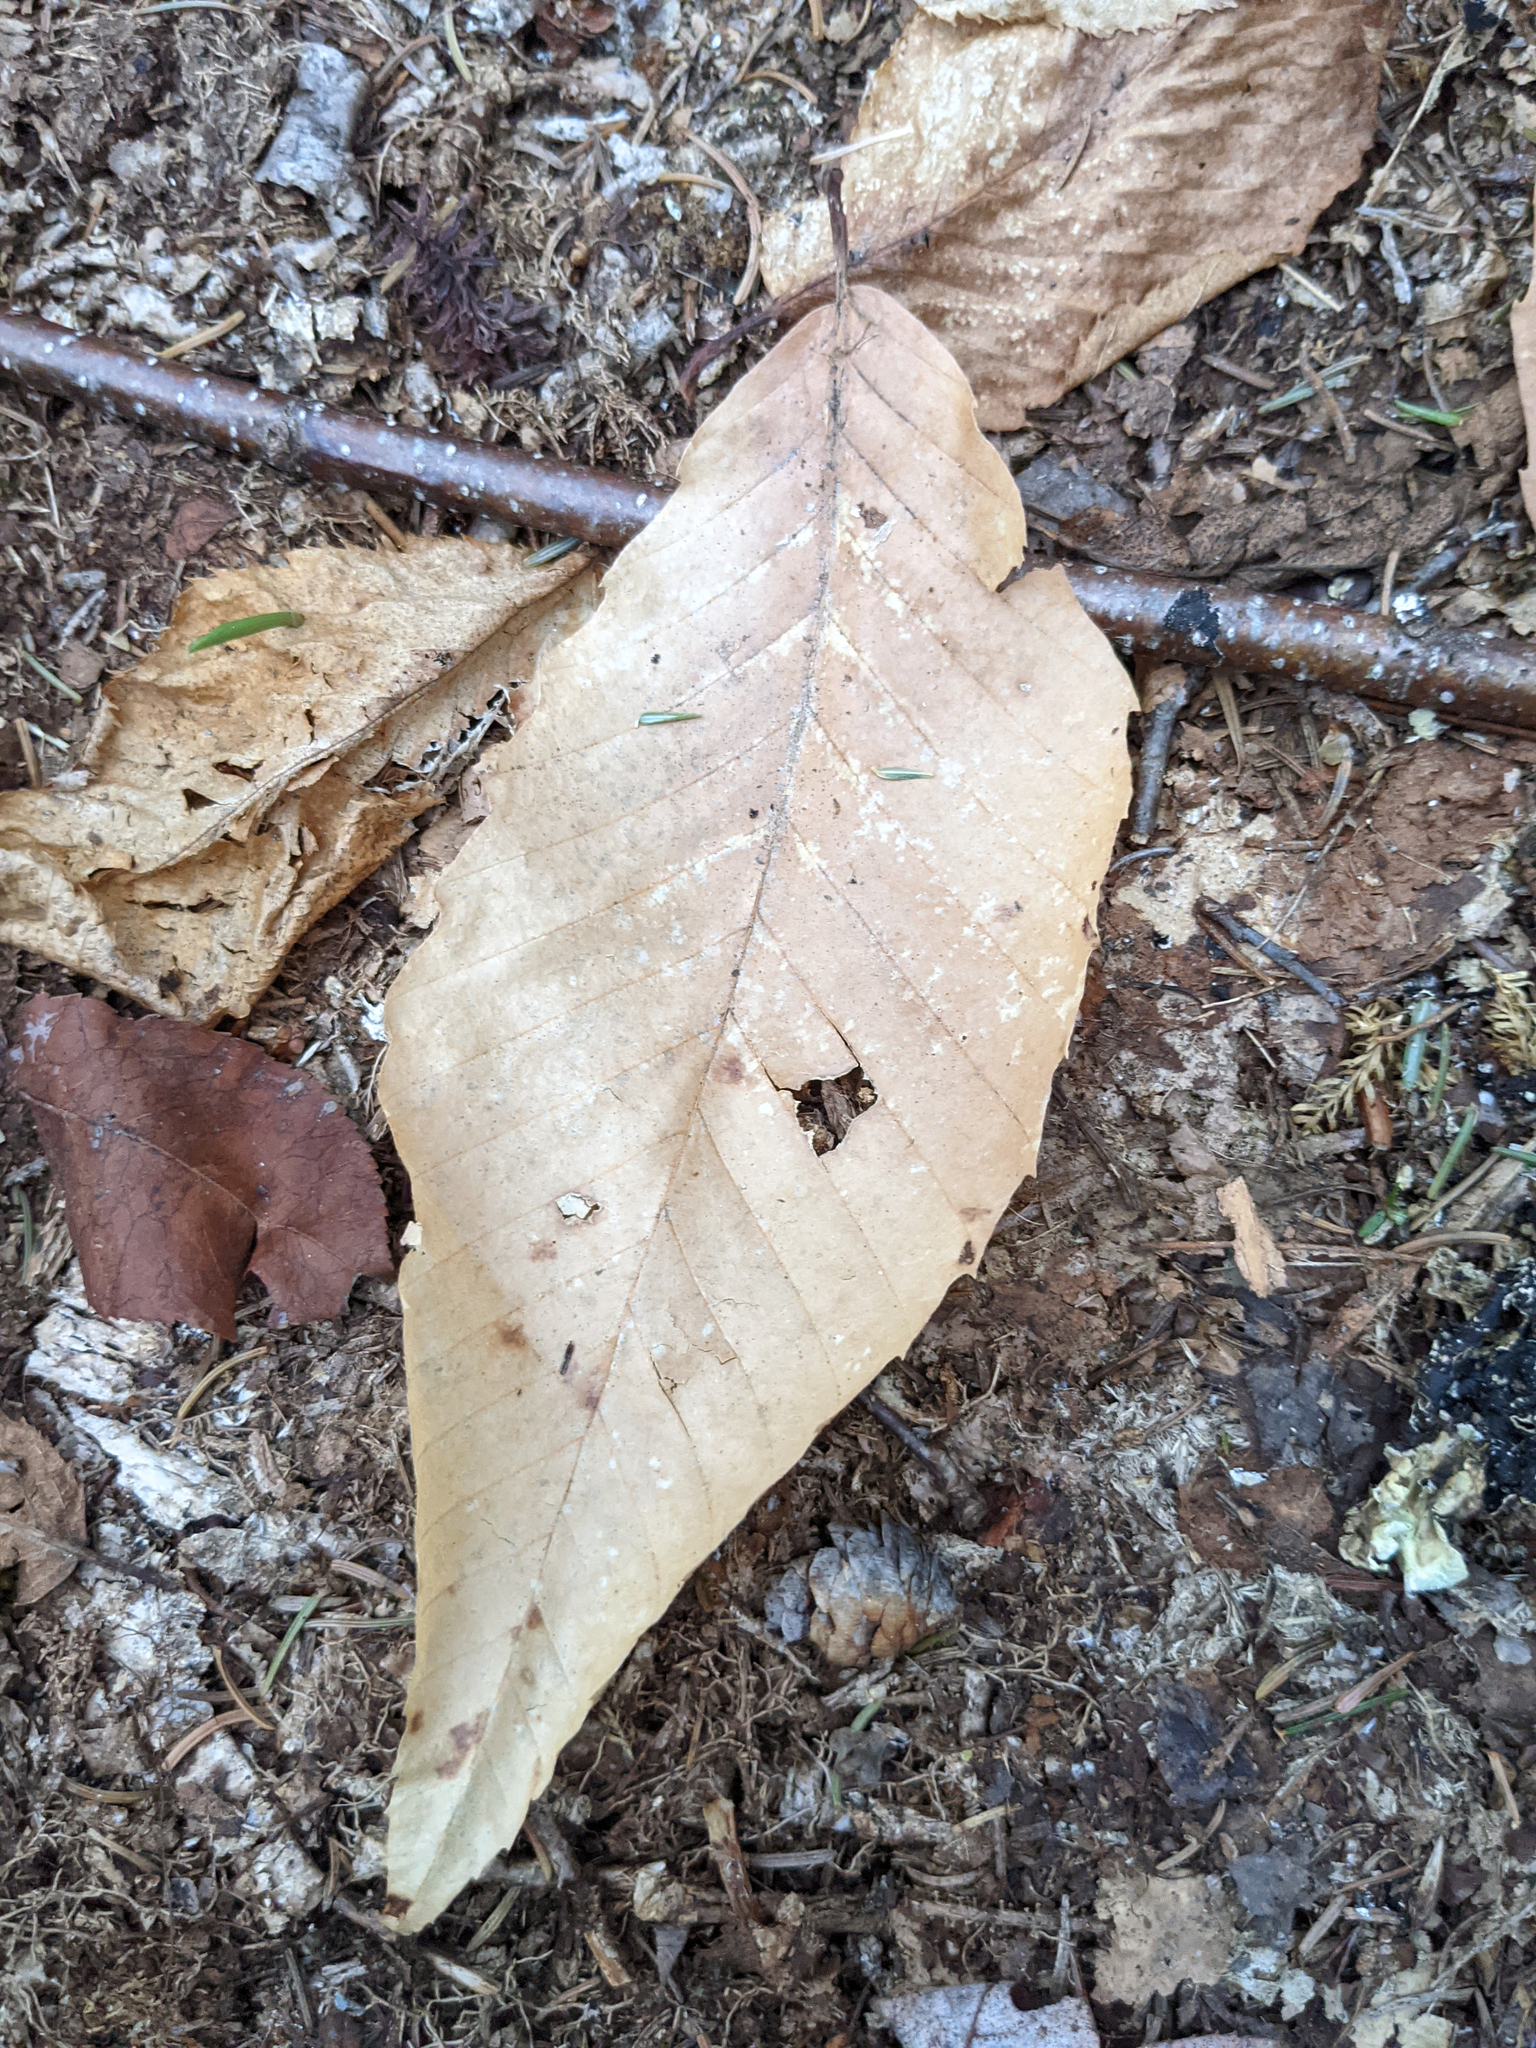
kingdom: Plantae
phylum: Tracheophyta
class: Magnoliopsida
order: Fagales
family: Fagaceae
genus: Fagus
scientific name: Fagus grandifolia
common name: American beech
